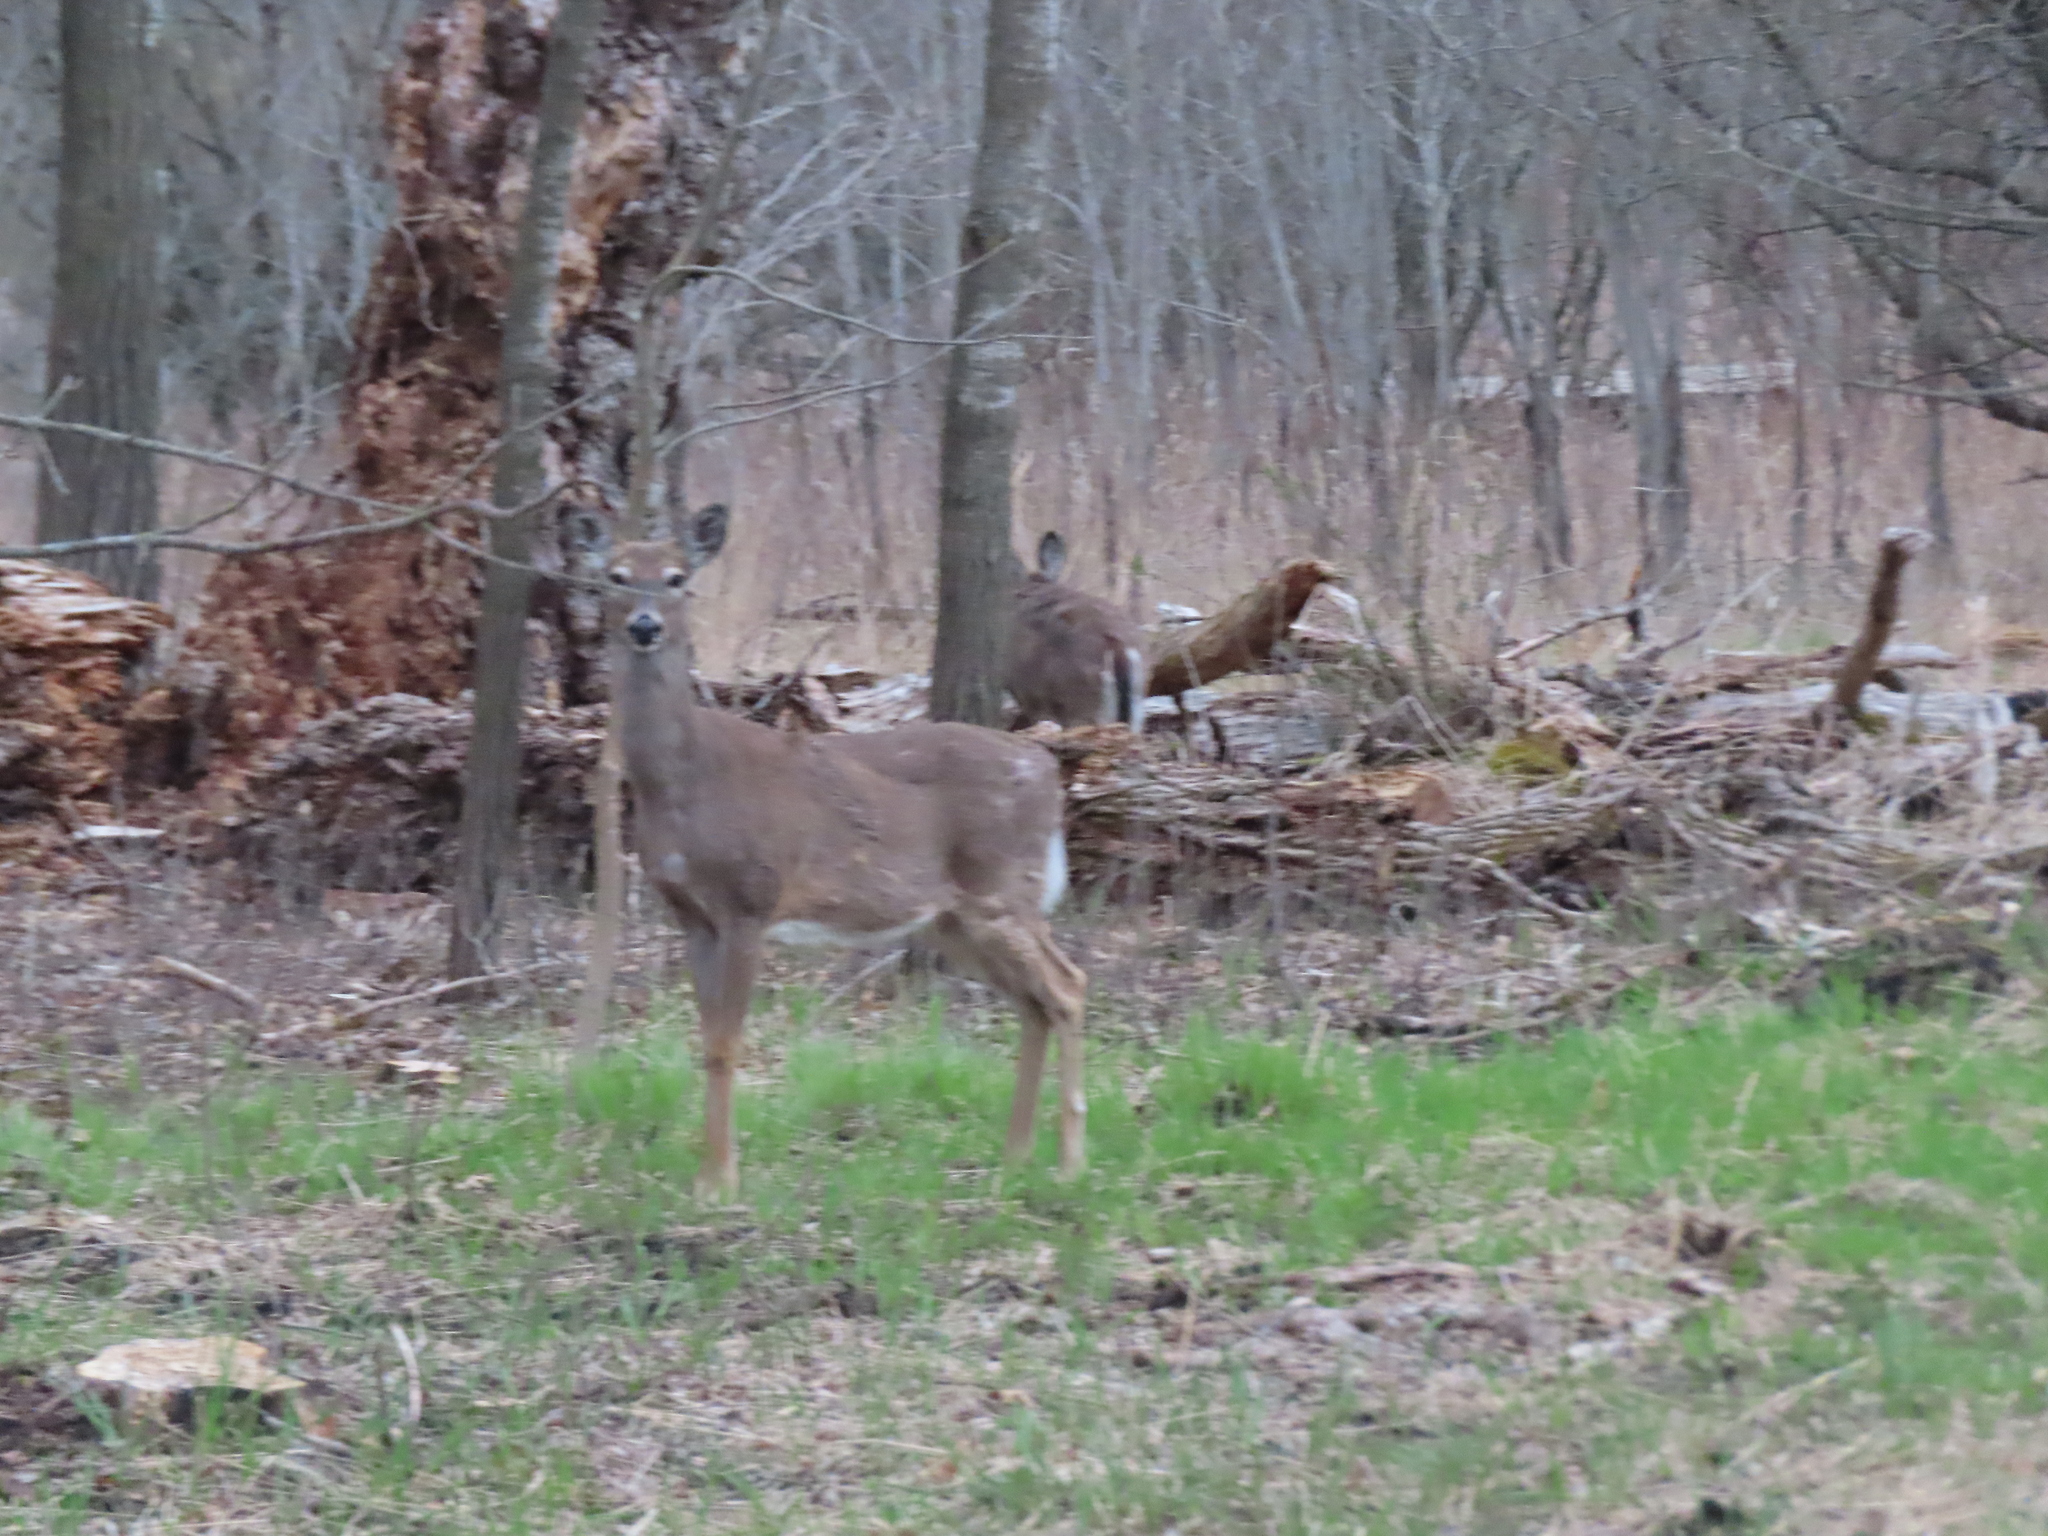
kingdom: Animalia
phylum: Chordata
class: Mammalia
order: Artiodactyla
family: Cervidae
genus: Odocoileus
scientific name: Odocoileus virginianus
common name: White-tailed deer
